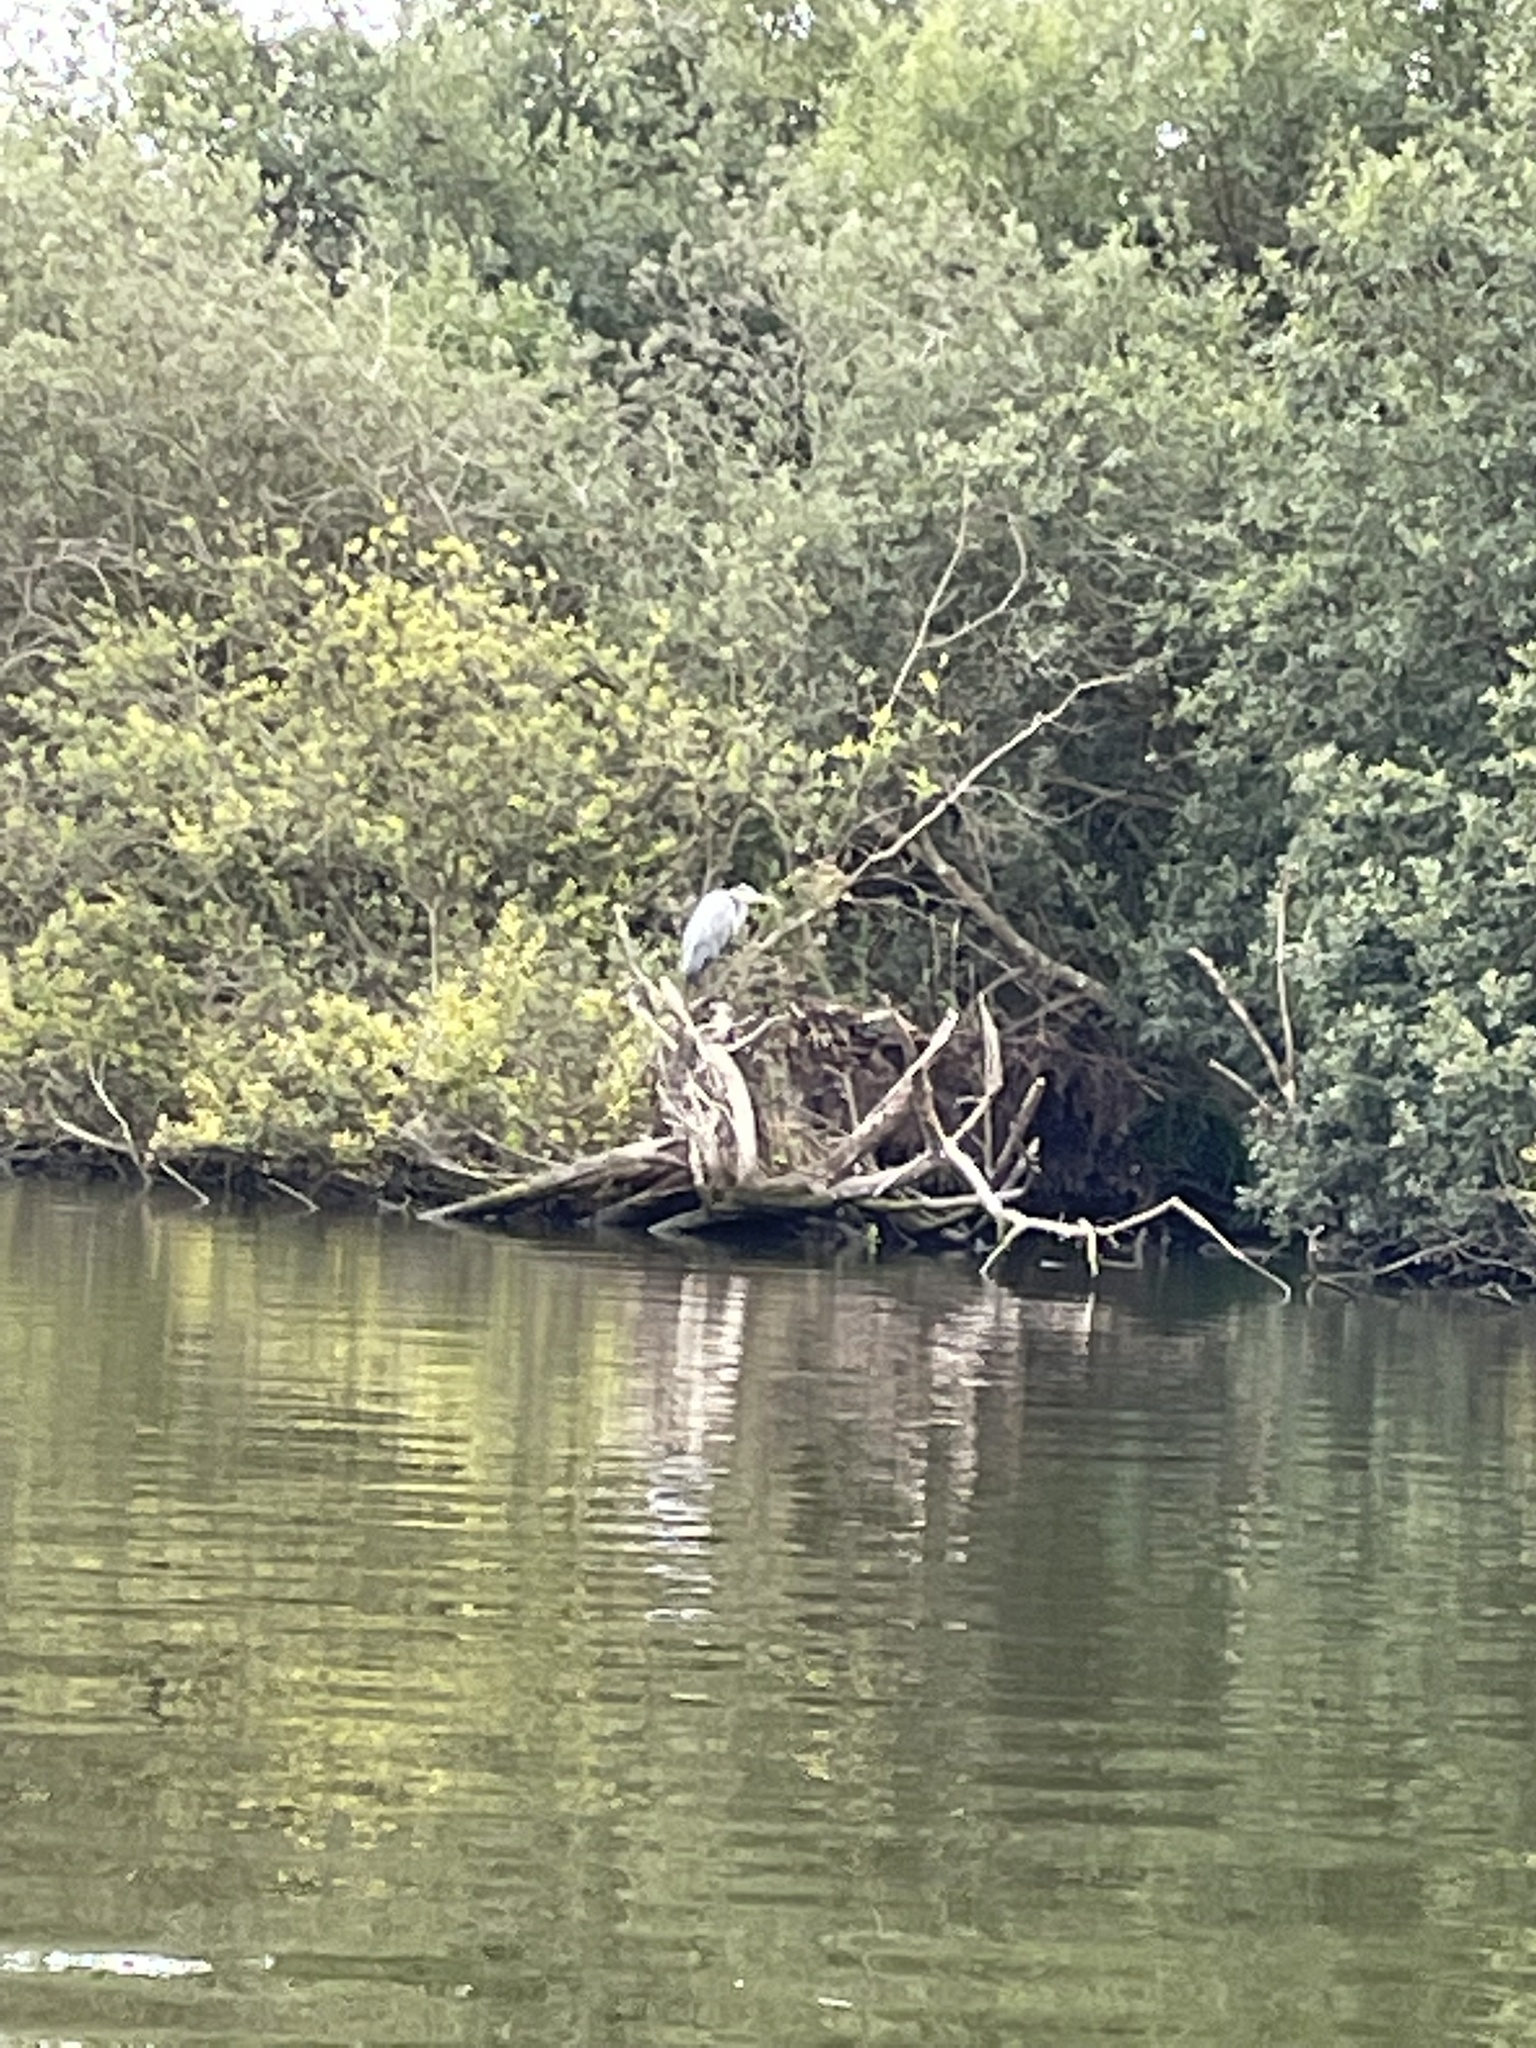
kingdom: Animalia
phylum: Chordata
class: Aves
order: Pelecaniformes
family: Ardeidae
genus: Ardea
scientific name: Ardea cinerea
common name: Grey heron
